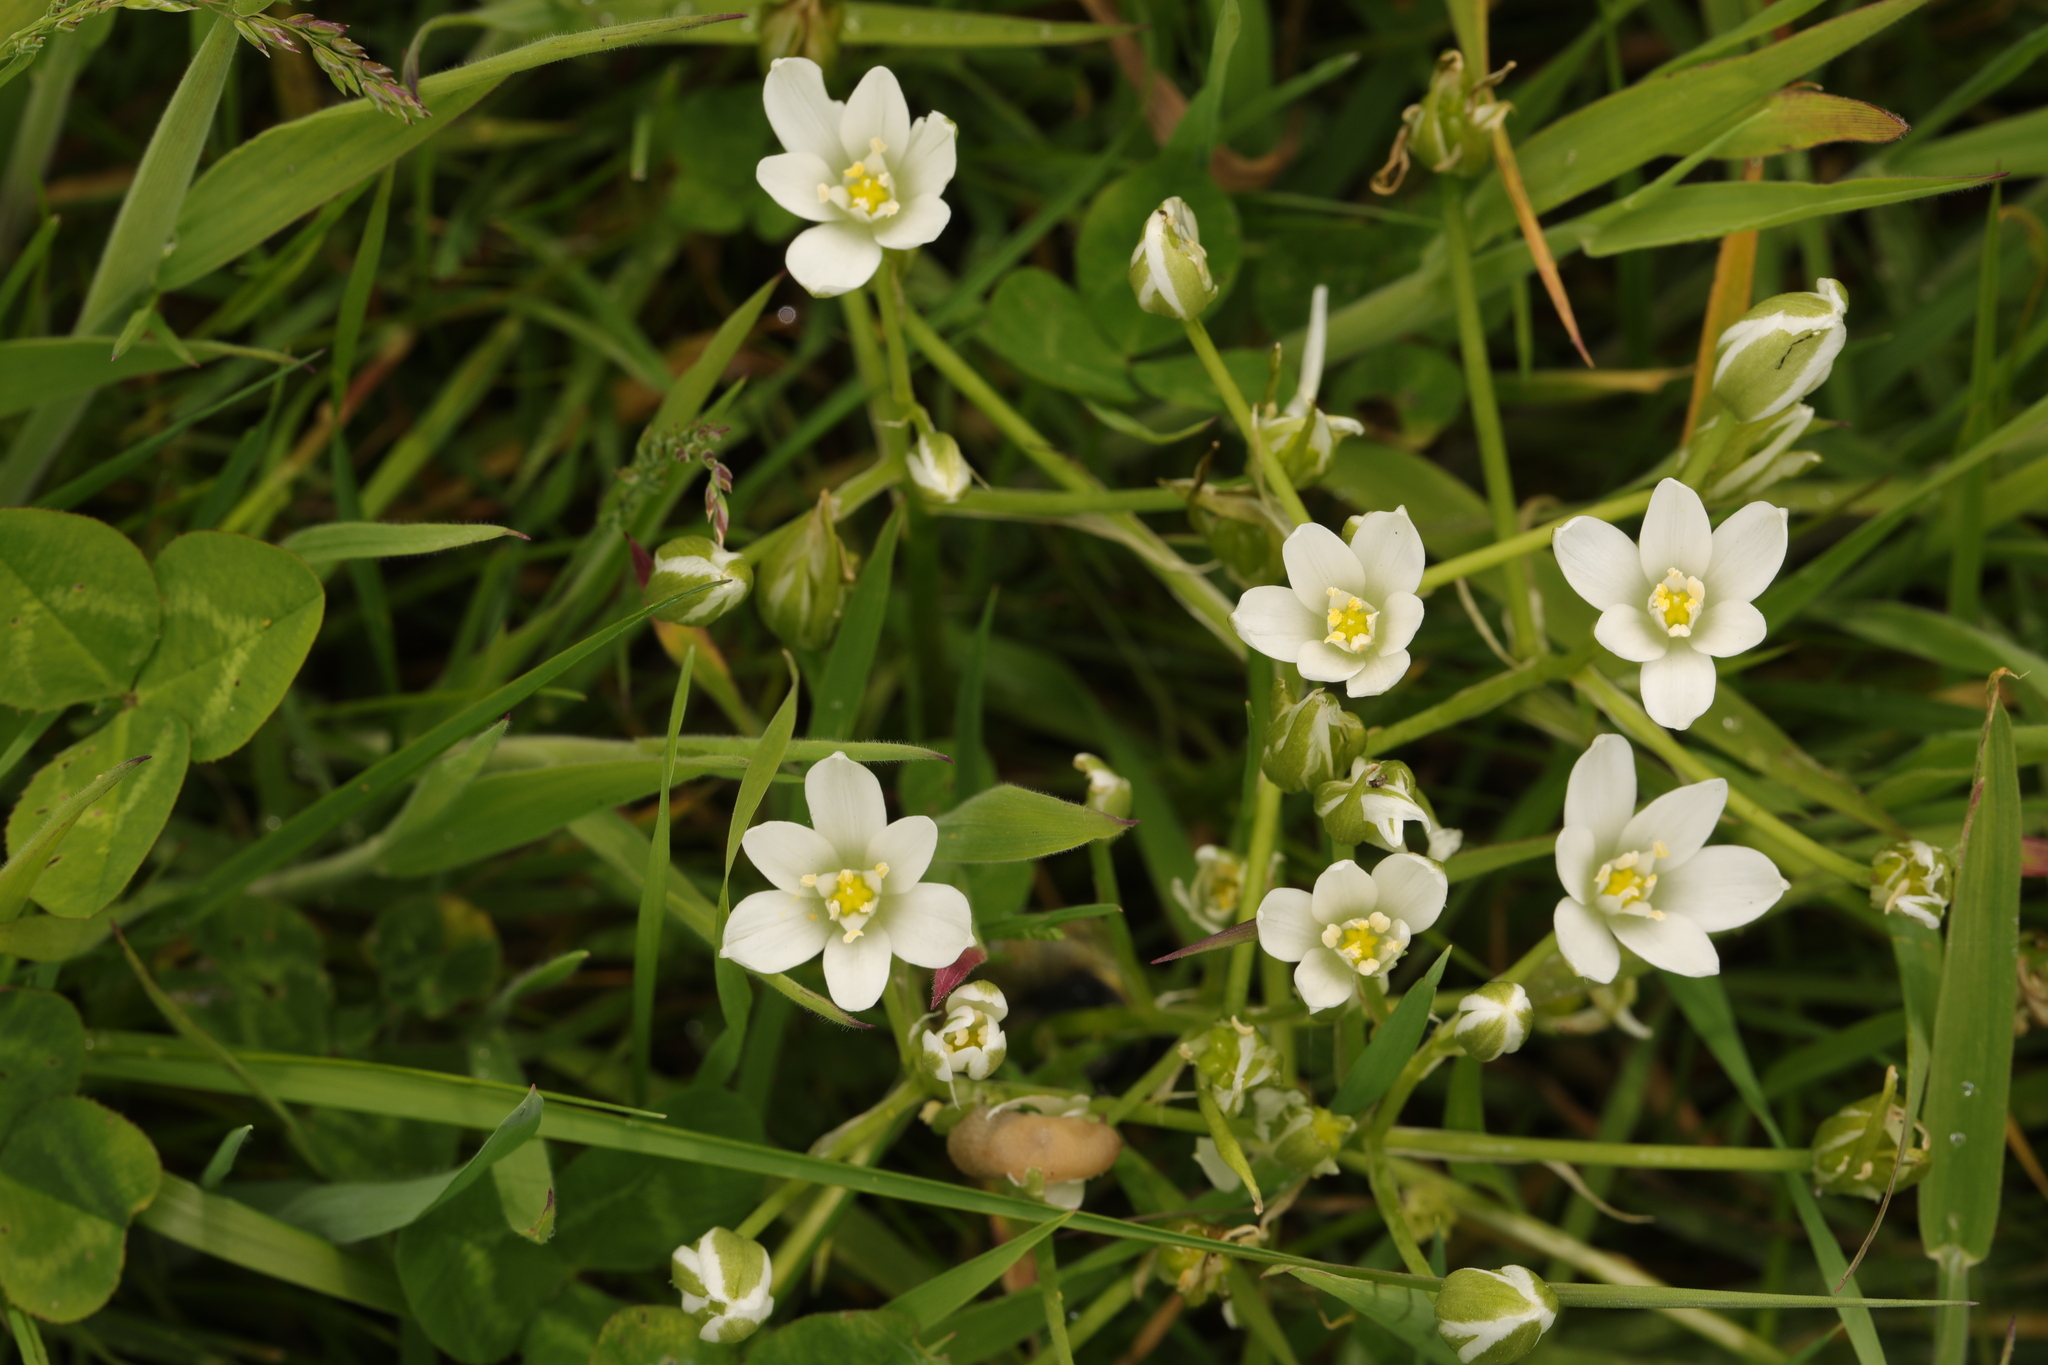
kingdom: Plantae
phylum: Tracheophyta
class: Liliopsida
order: Asparagales
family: Asparagaceae
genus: Ornithogalum
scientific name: Ornithogalum umbellatum
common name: Garden star-of-bethlehem
